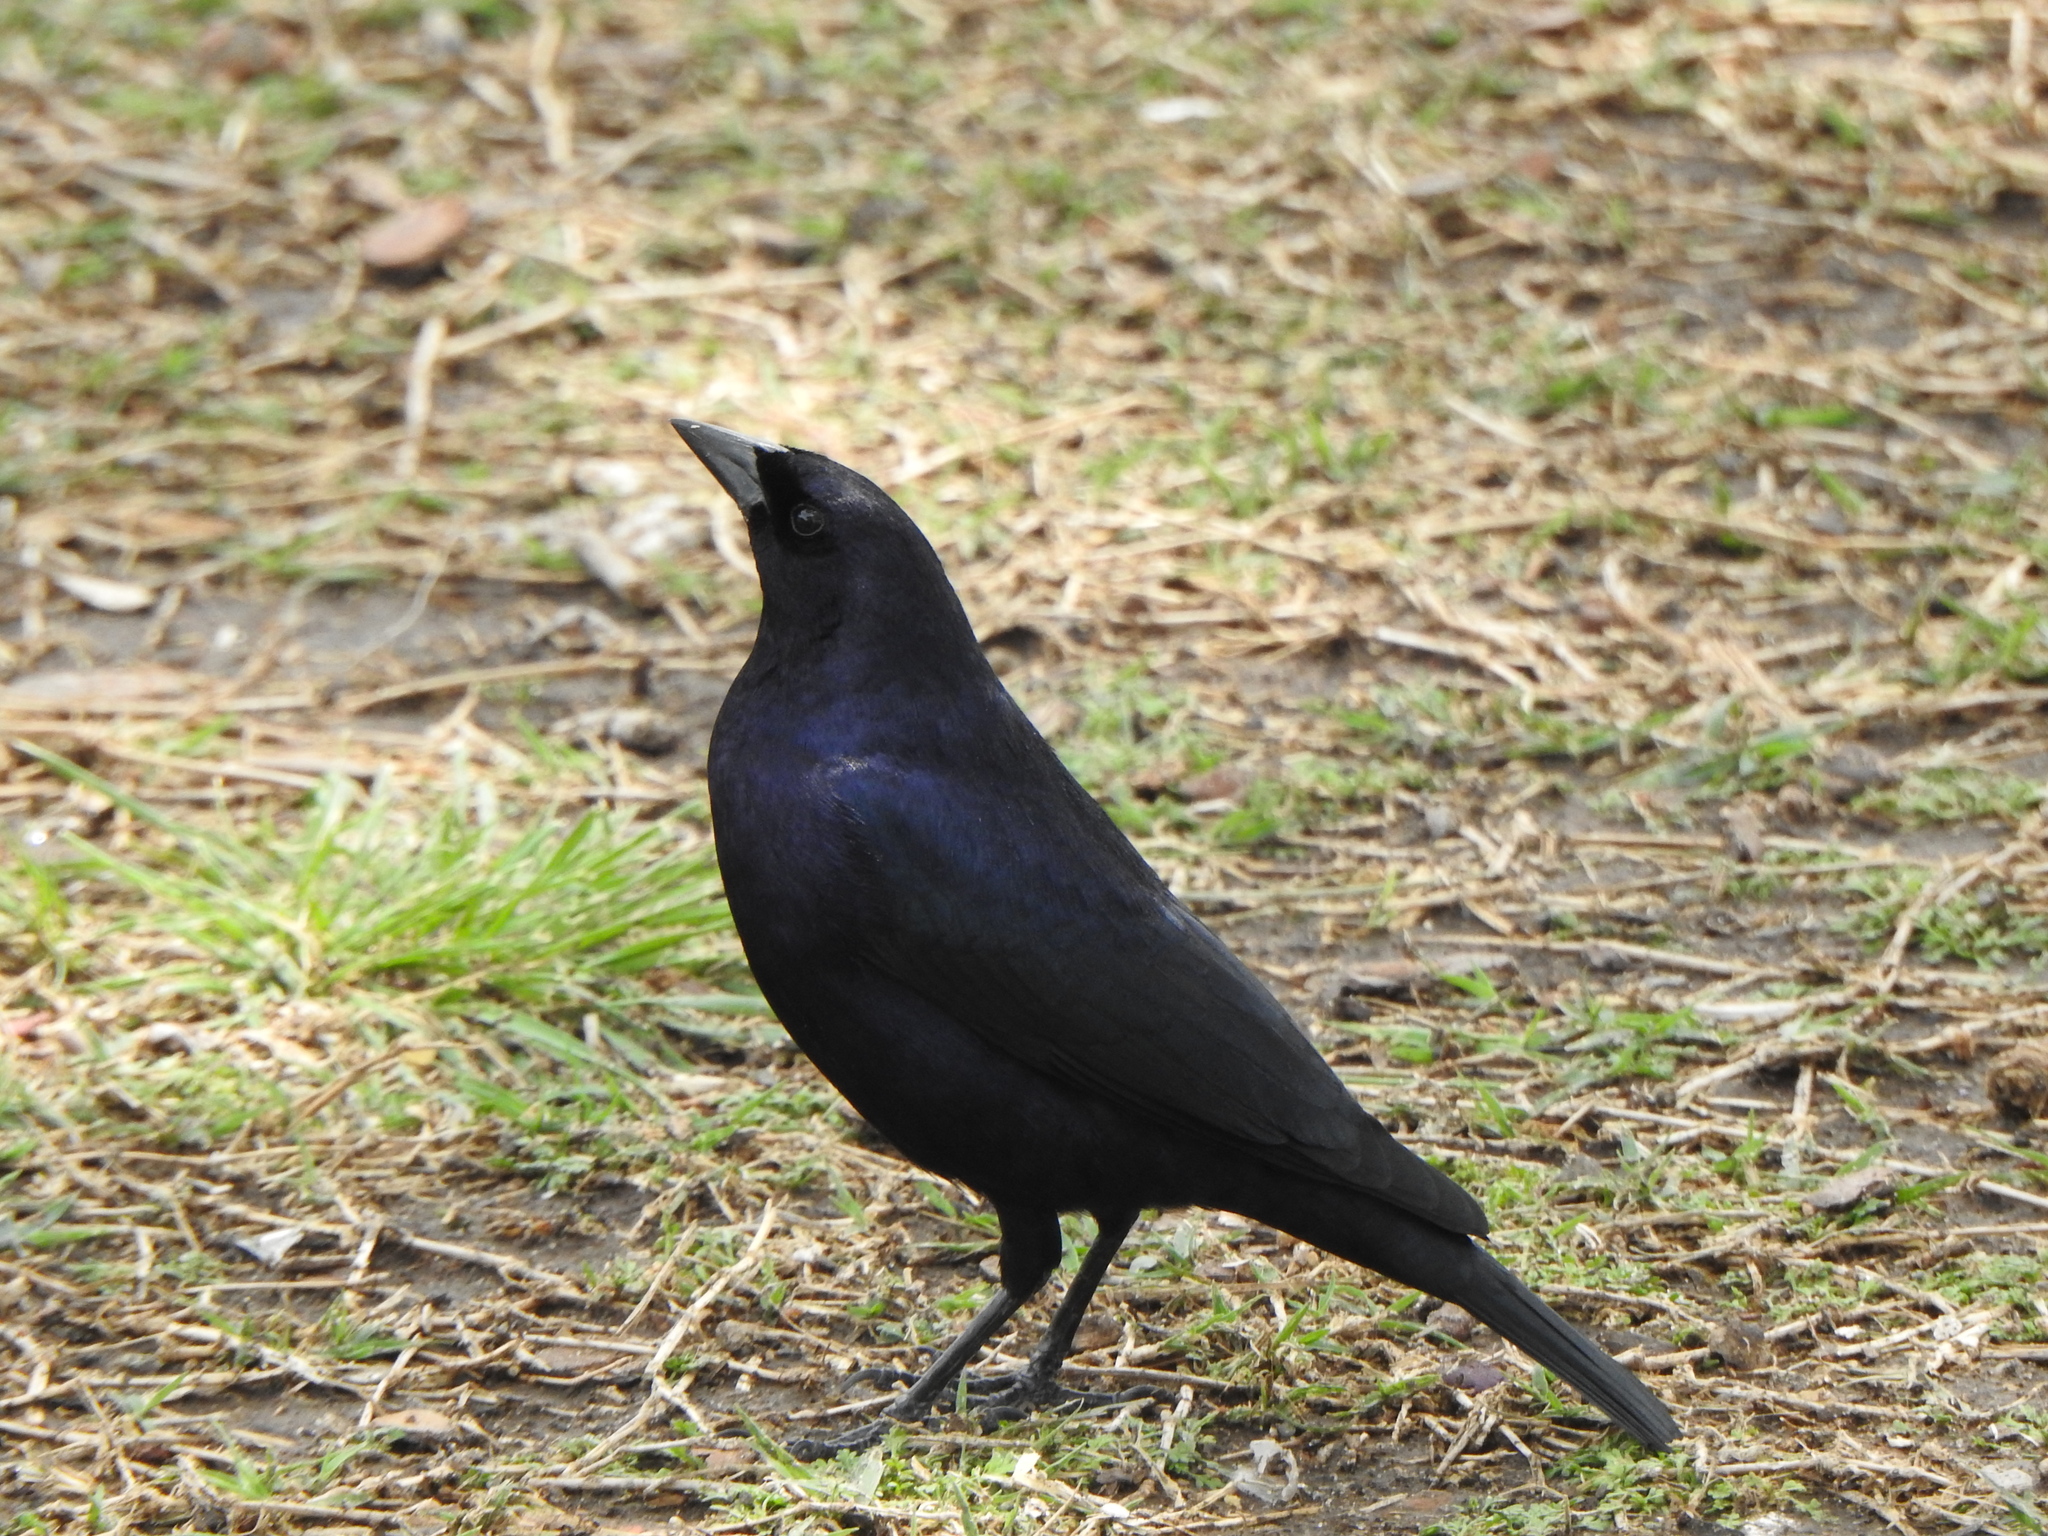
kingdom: Animalia
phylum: Chordata
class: Aves
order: Passeriformes
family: Icteridae
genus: Molothrus
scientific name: Molothrus bonariensis
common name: Shiny cowbird
